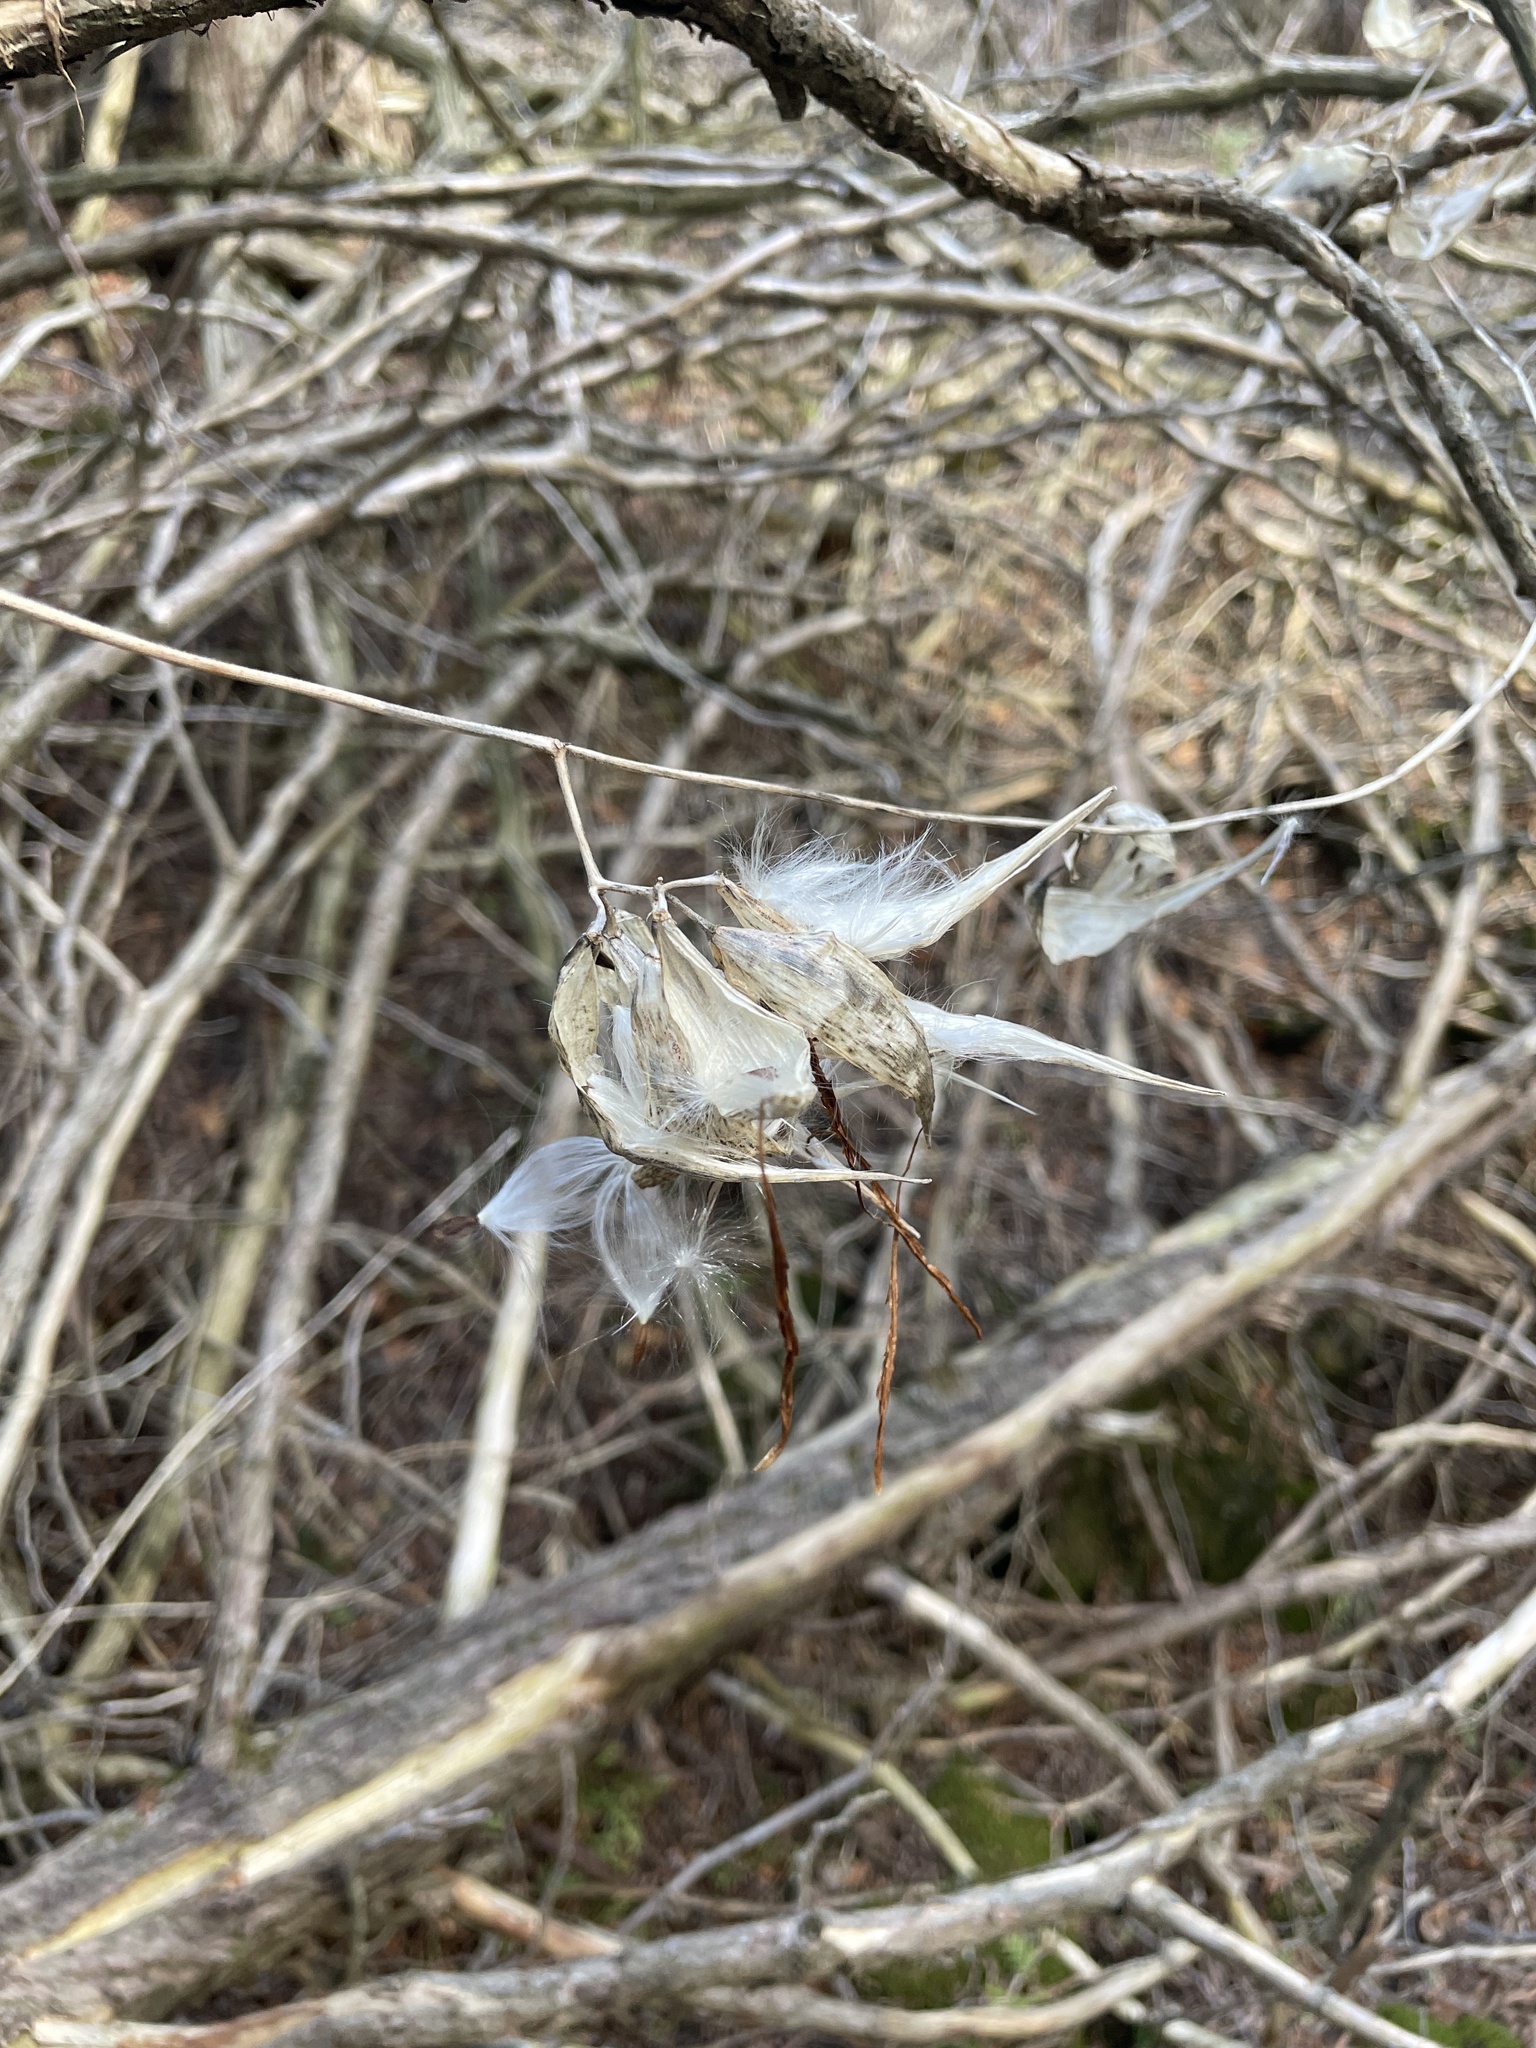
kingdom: Plantae
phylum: Tracheophyta
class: Magnoliopsida
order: Gentianales
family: Apocynaceae
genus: Vincetoxicum
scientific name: Vincetoxicum rossicum
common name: Dog-strangling vine
